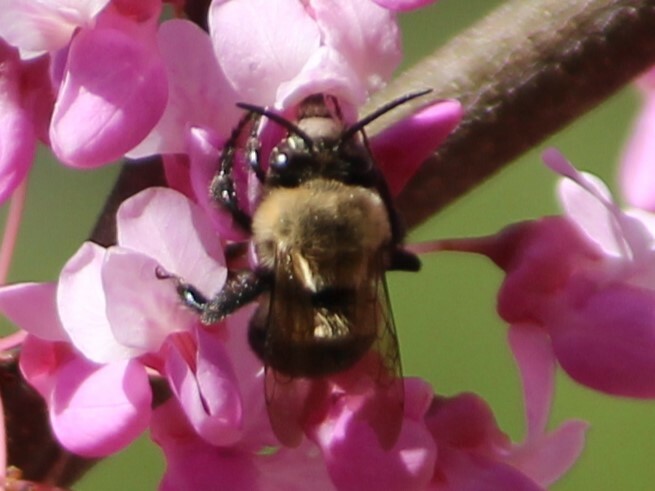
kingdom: Animalia
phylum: Arthropoda
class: Insecta
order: Hymenoptera
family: Apidae
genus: Habropoda
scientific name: Habropoda laboriosa
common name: Southeastern blueberry bee
